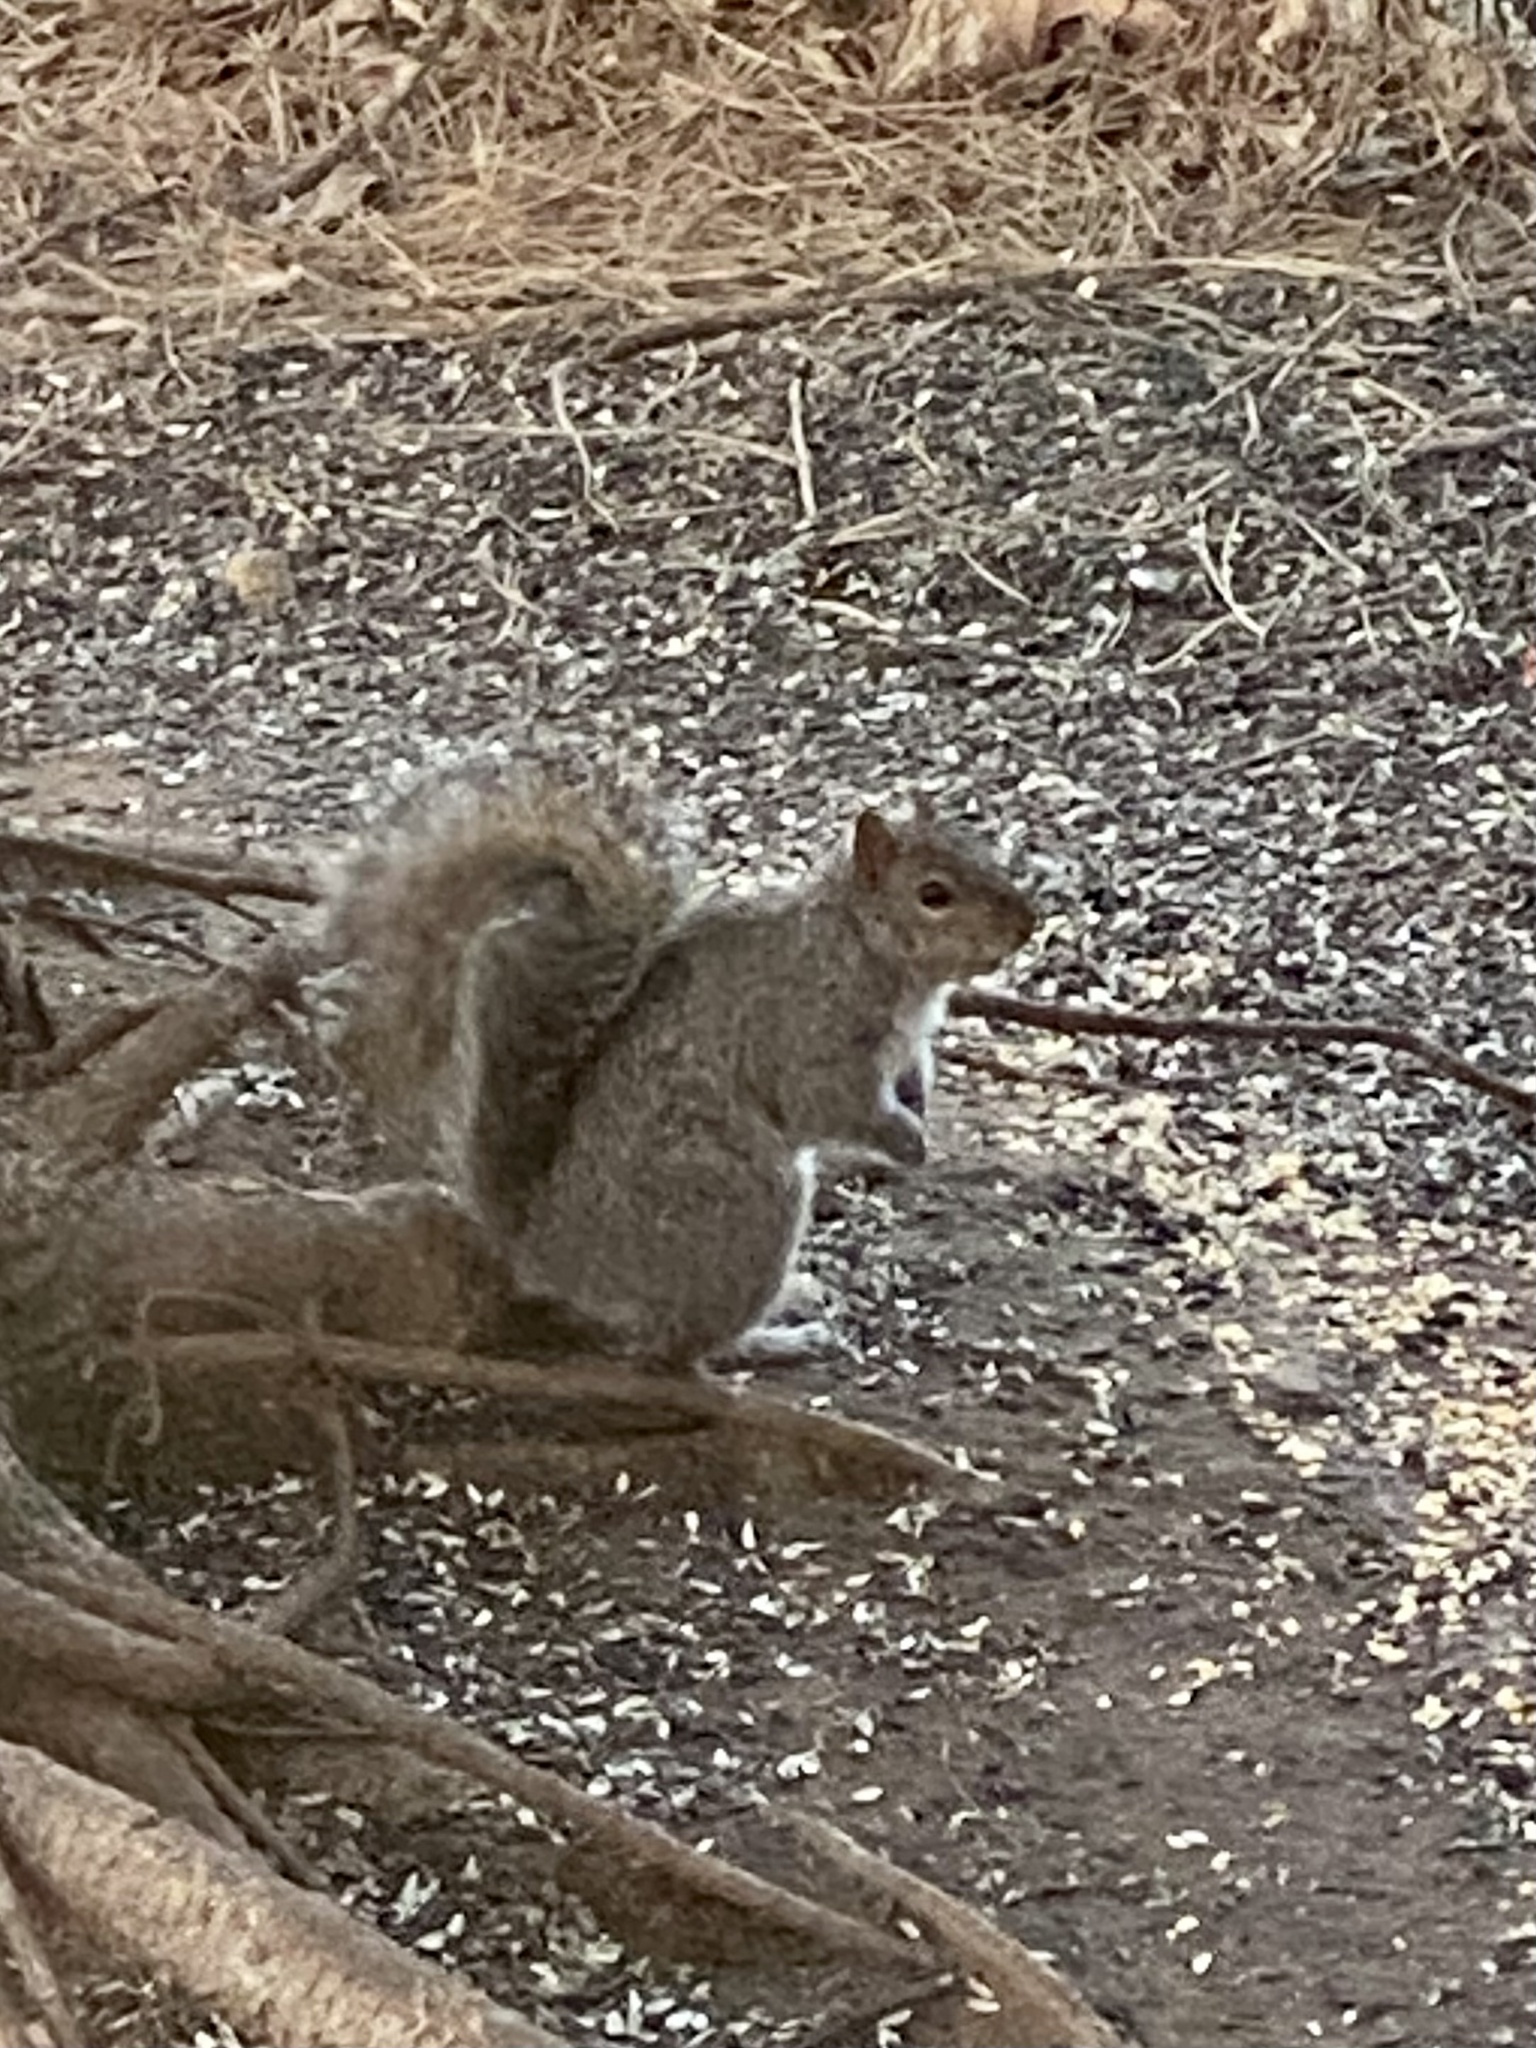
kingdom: Animalia
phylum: Chordata
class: Mammalia
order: Rodentia
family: Sciuridae
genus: Sciurus
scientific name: Sciurus carolinensis
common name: Eastern gray squirrel
